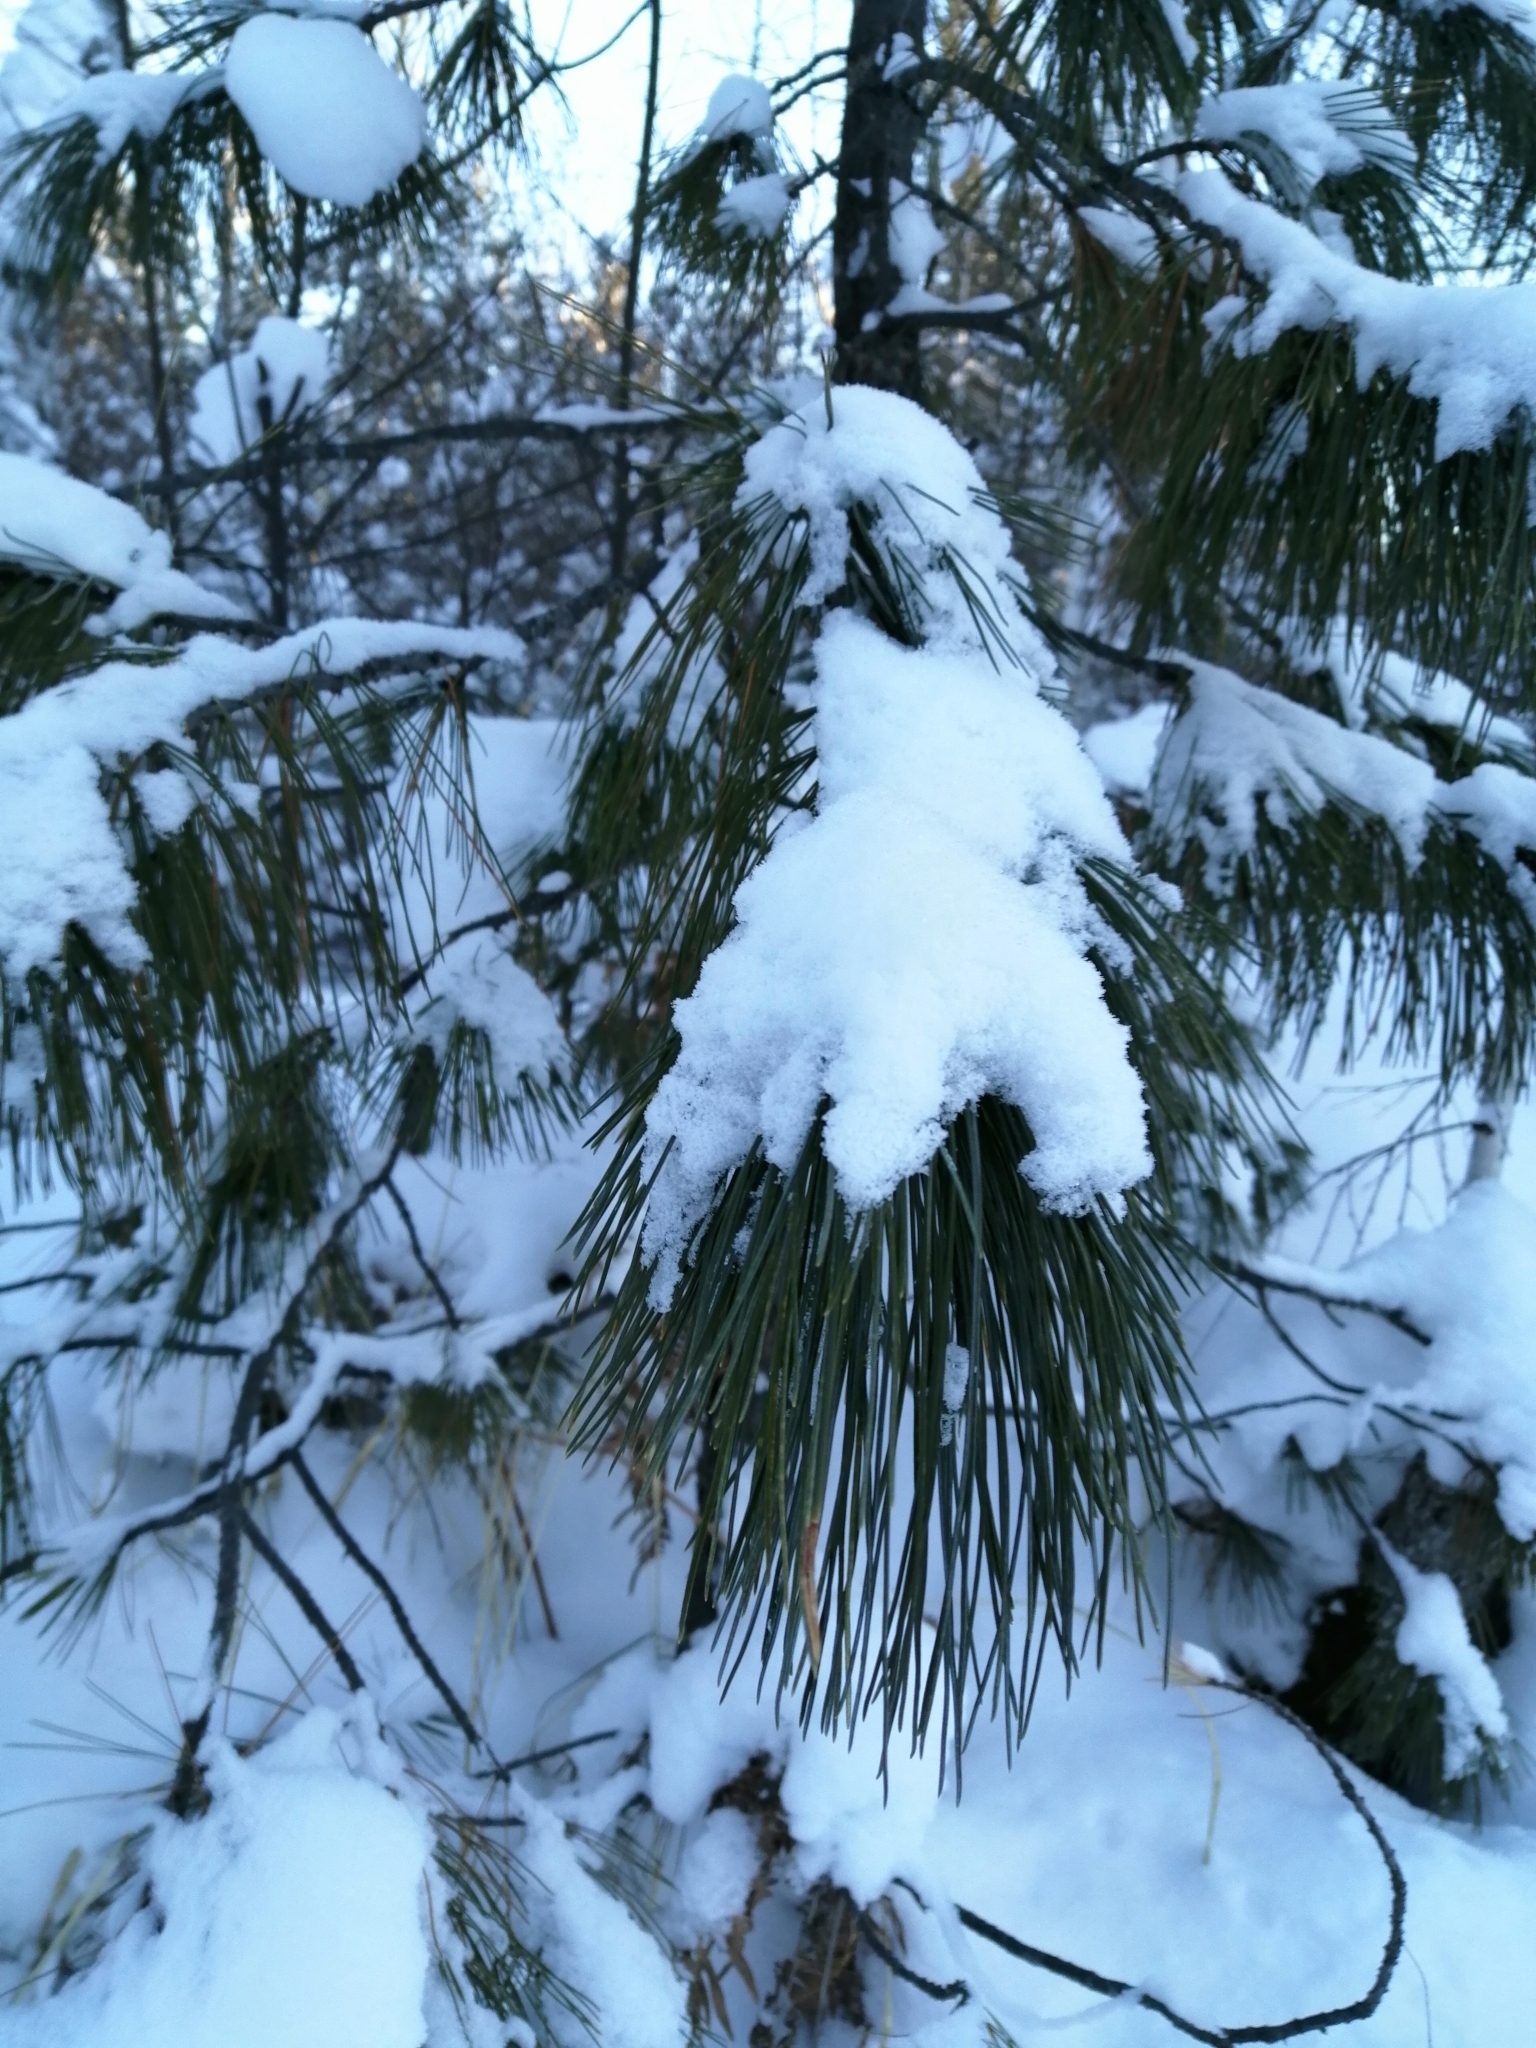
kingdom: Plantae
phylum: Tracheophyta
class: Pinopsida
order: Pinales
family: Pinaceae
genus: Pinus
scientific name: Pinus sibirica
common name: Siberian pine
